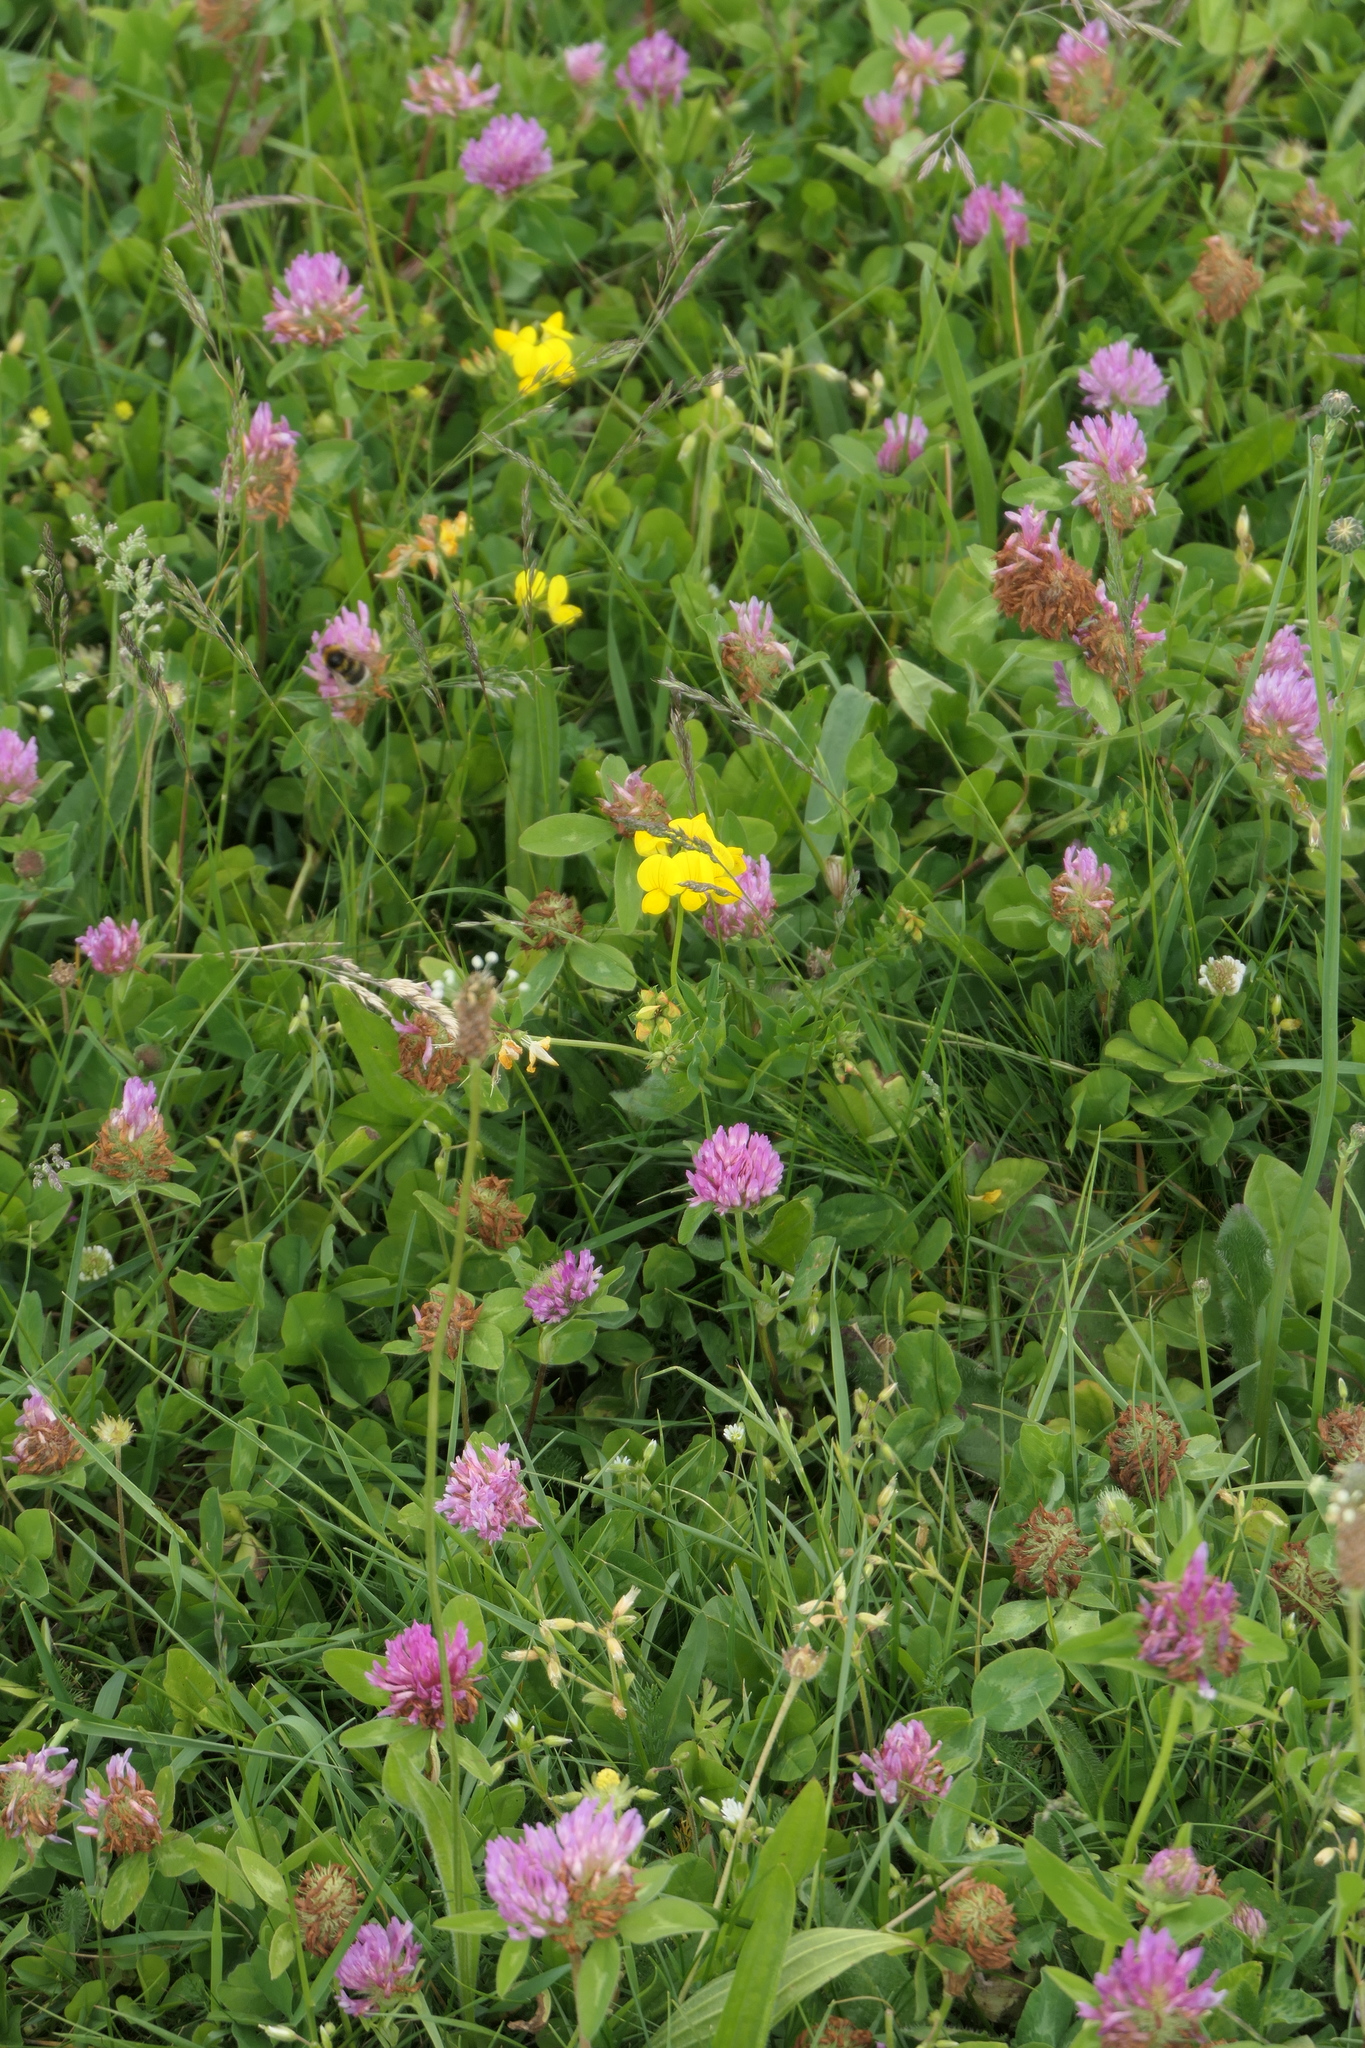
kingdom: Plantae
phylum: Tracheophyta
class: Magnoliopsida
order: Fabales
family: Fabaceae
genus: Lotus
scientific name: Lotus corniculatus
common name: Common bird's-foot-trefoil
